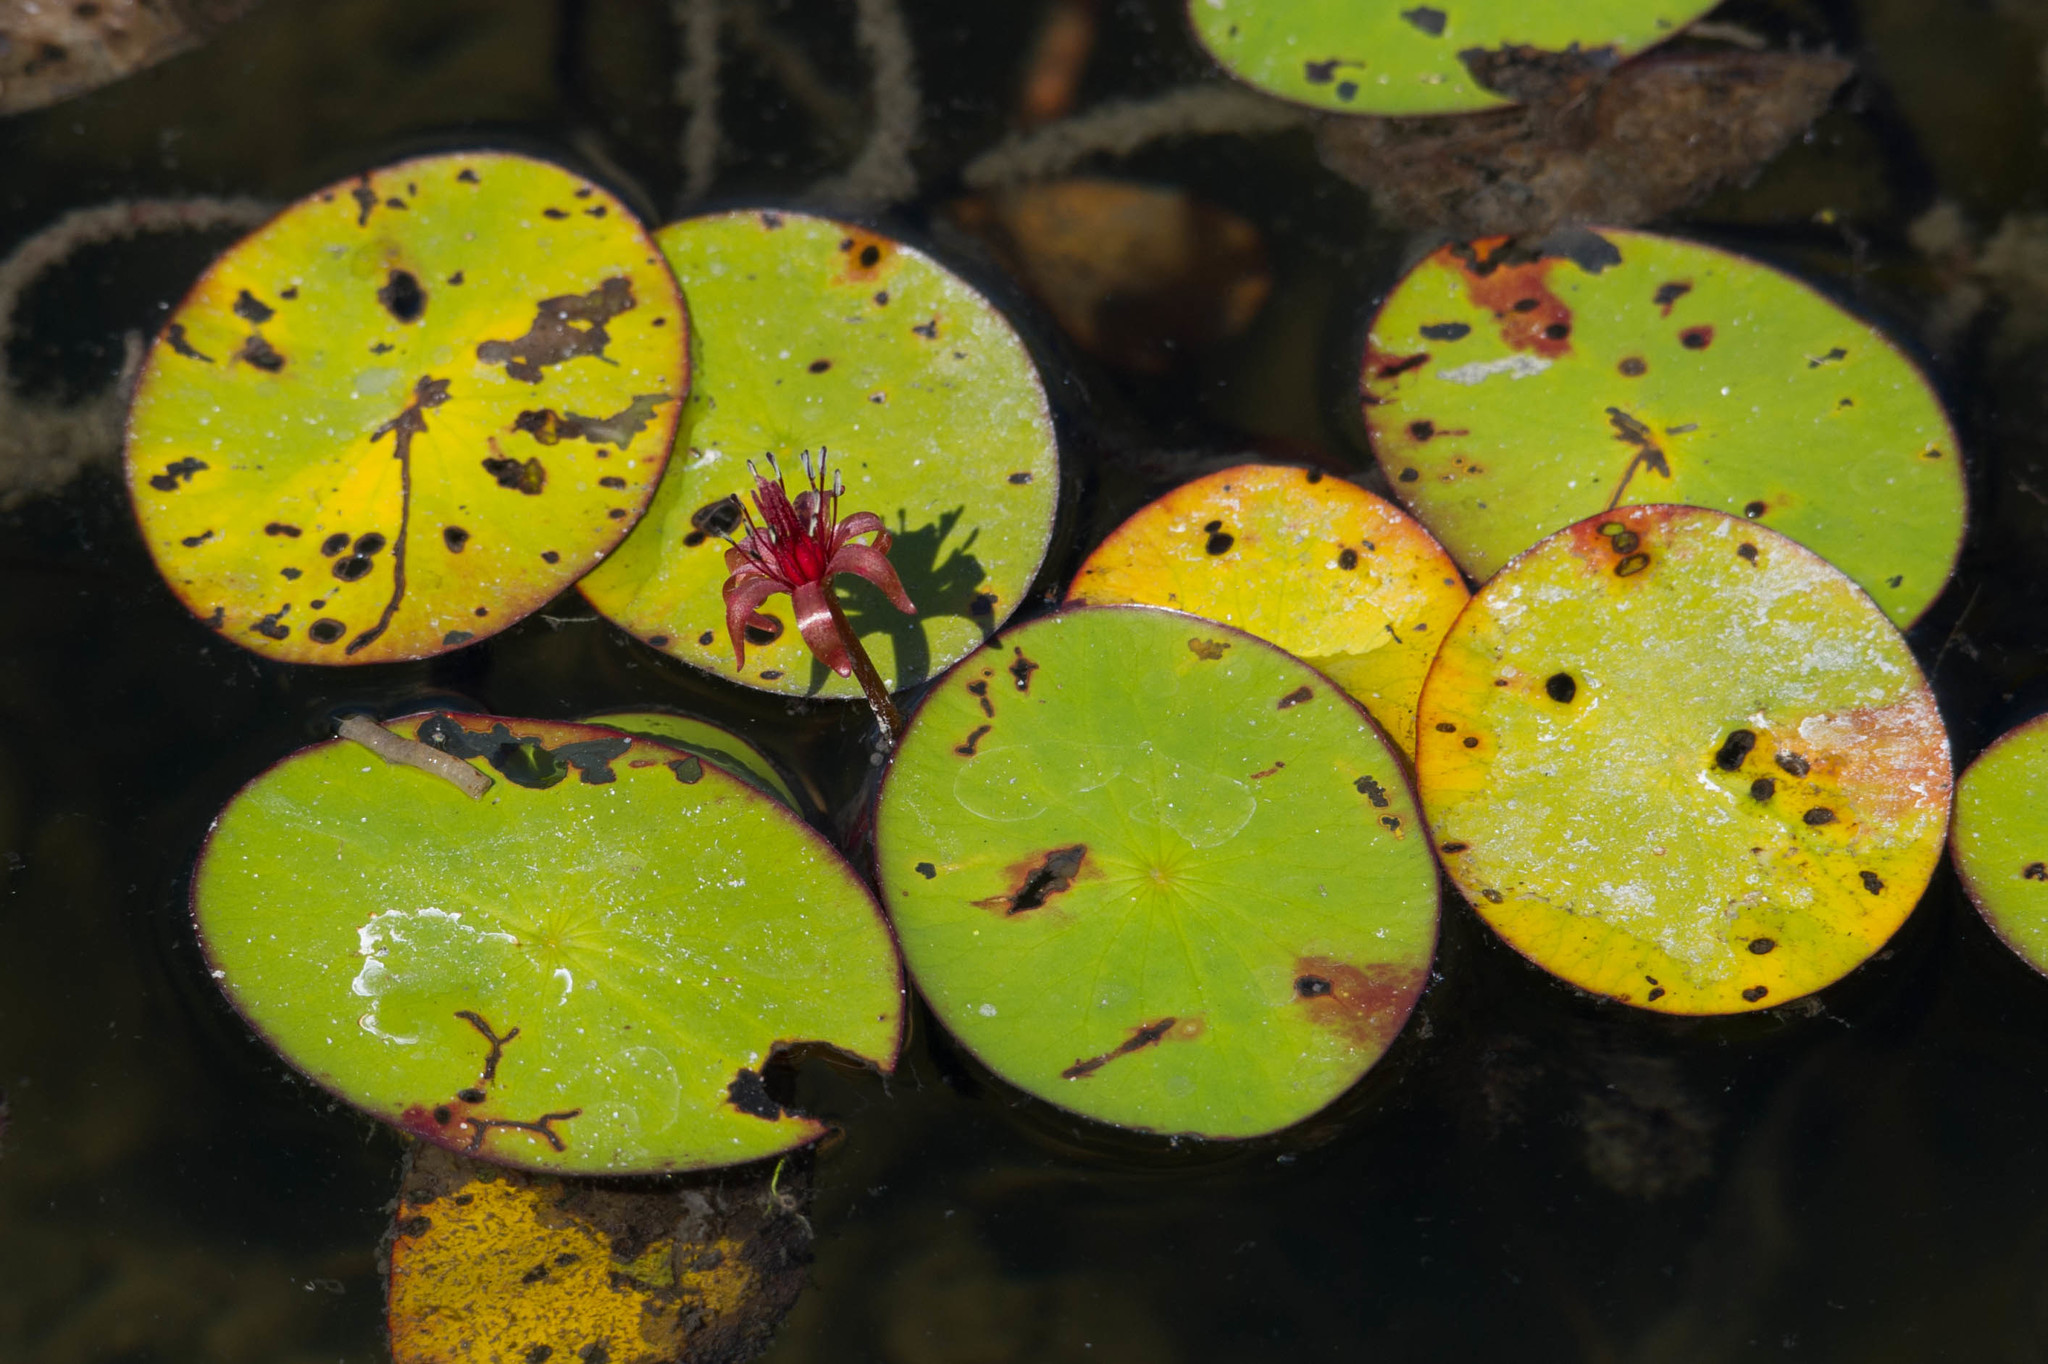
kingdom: Plantae
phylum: Tracheophyta
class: Magnoliopsida
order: Nymphaeales
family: Cabombaceae
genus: Brasenia
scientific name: Brasenia schreberi
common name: Water-shield
